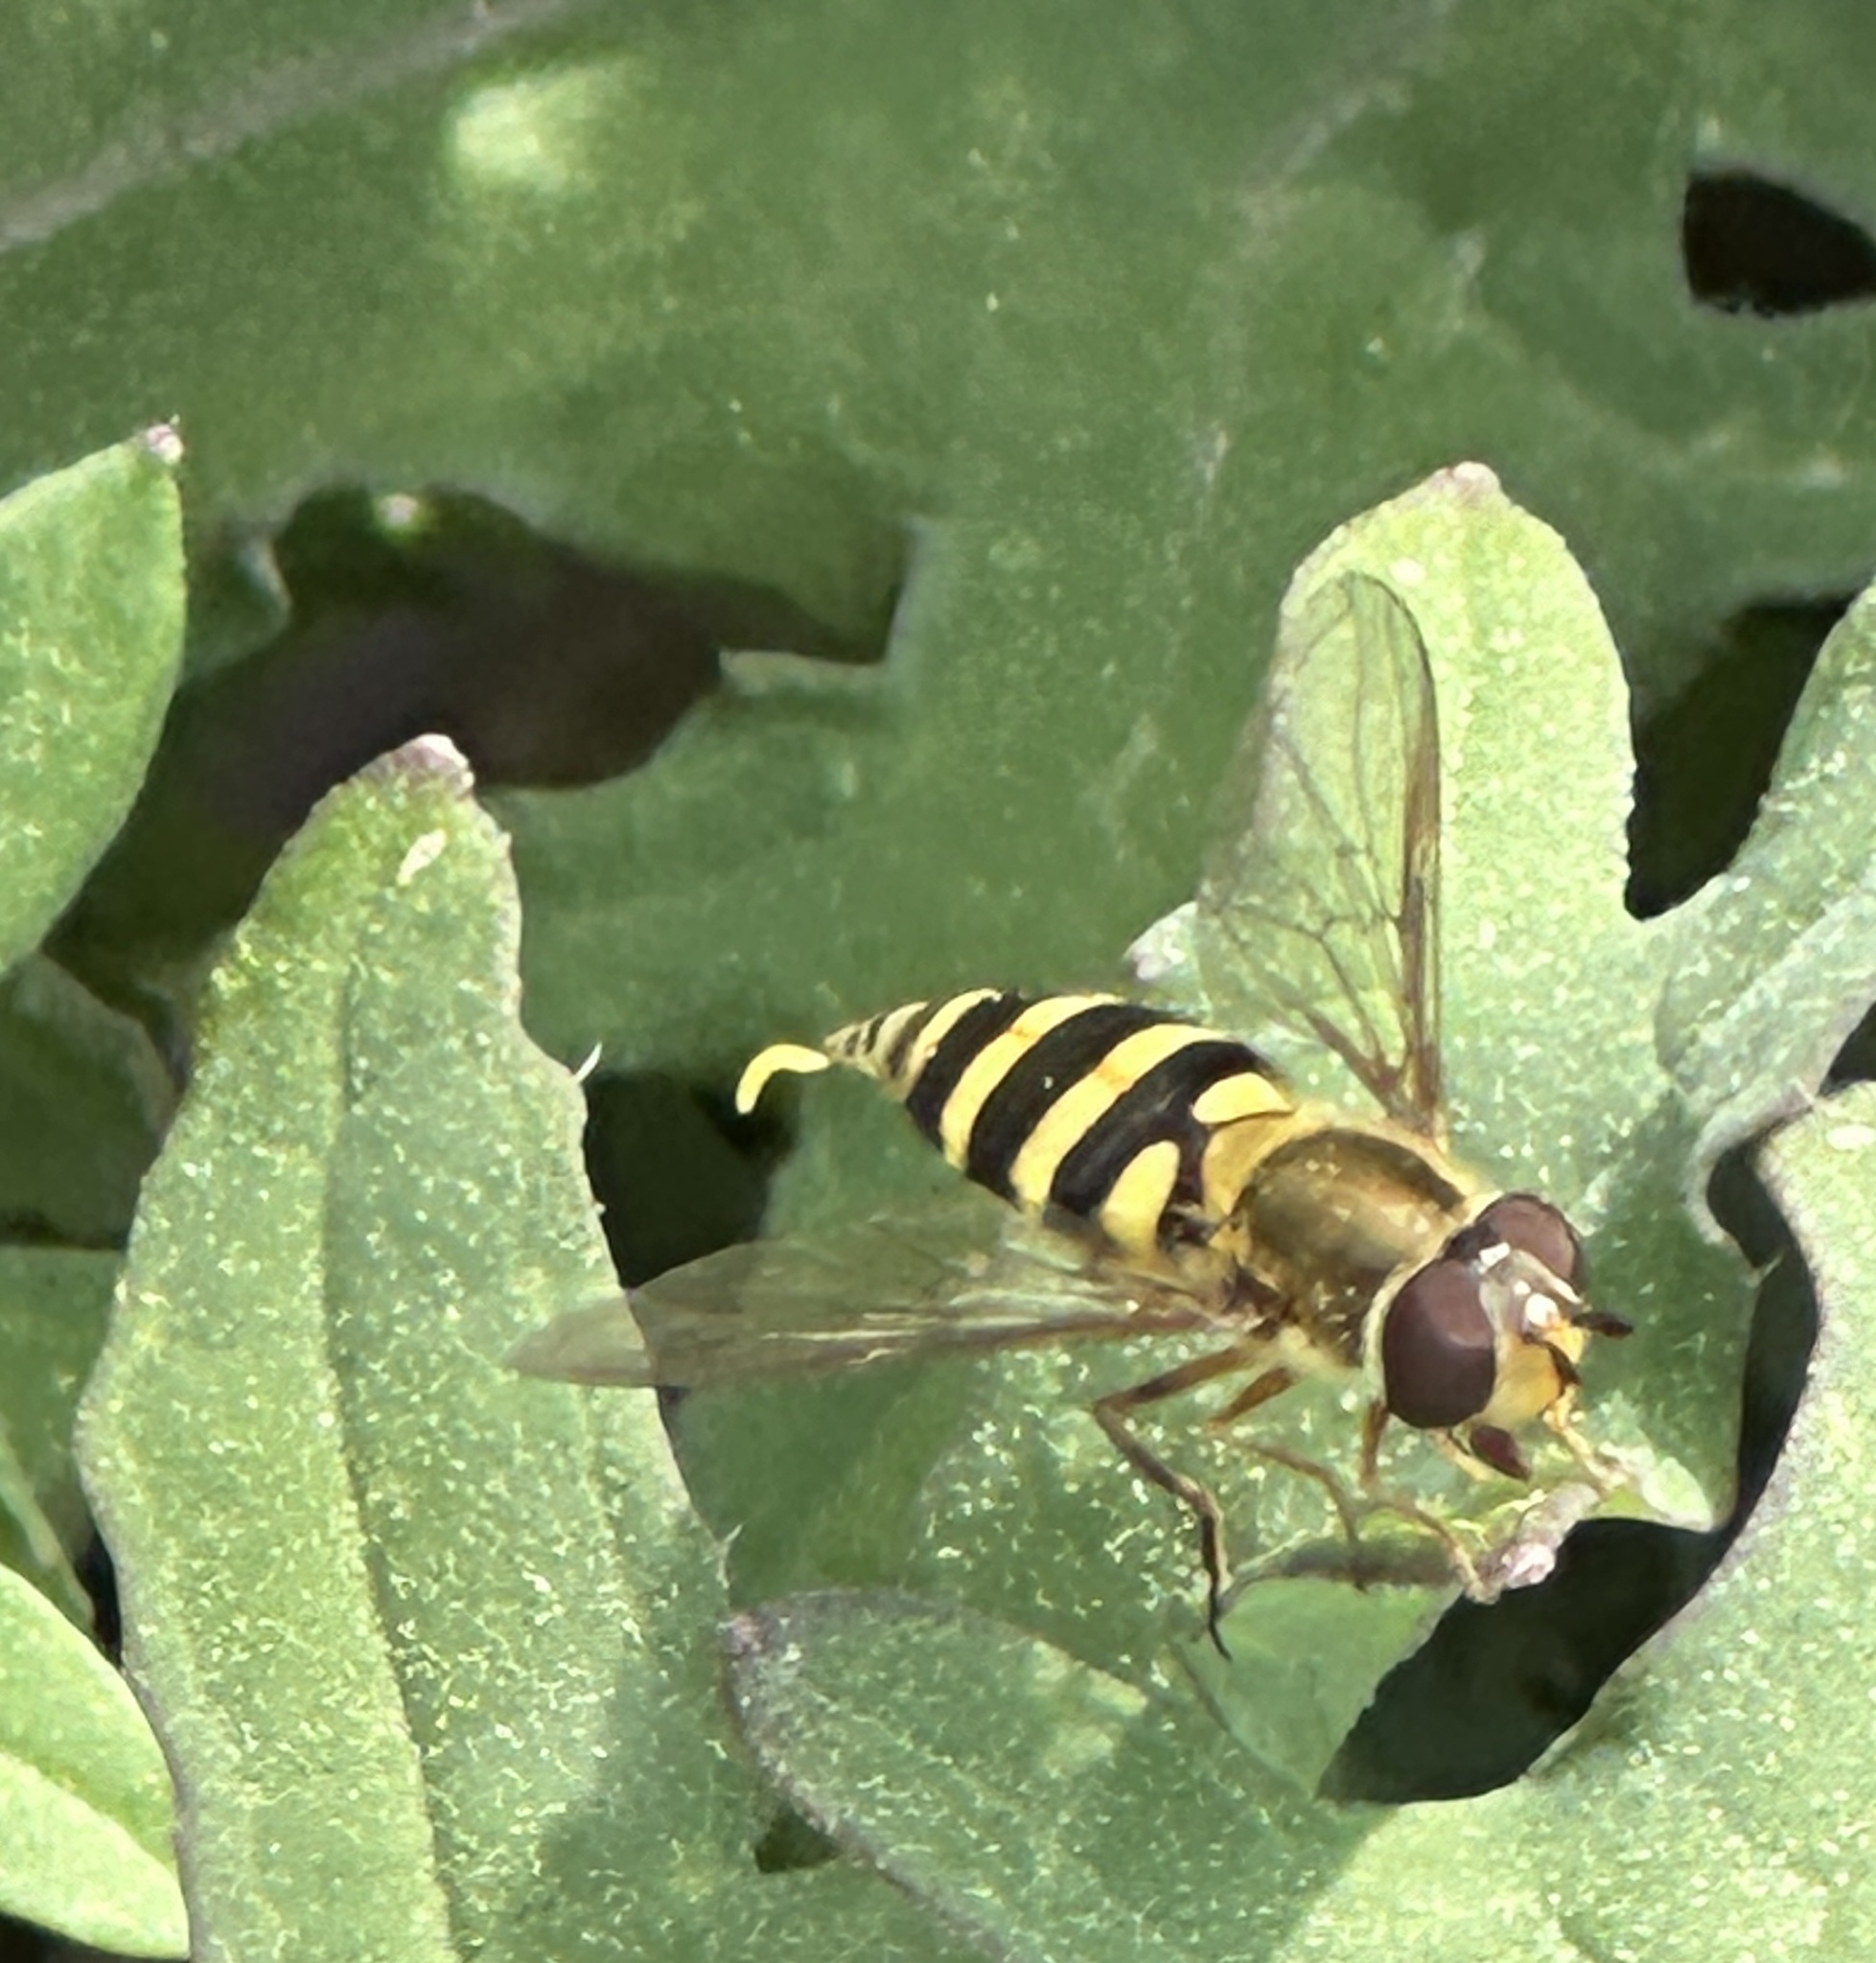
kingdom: Animalia
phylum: Arthropoda
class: Insecta
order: Diptera
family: Syrphidae
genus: Syrphus
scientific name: Syrphus rectus
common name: Yellow-legged flower fly
